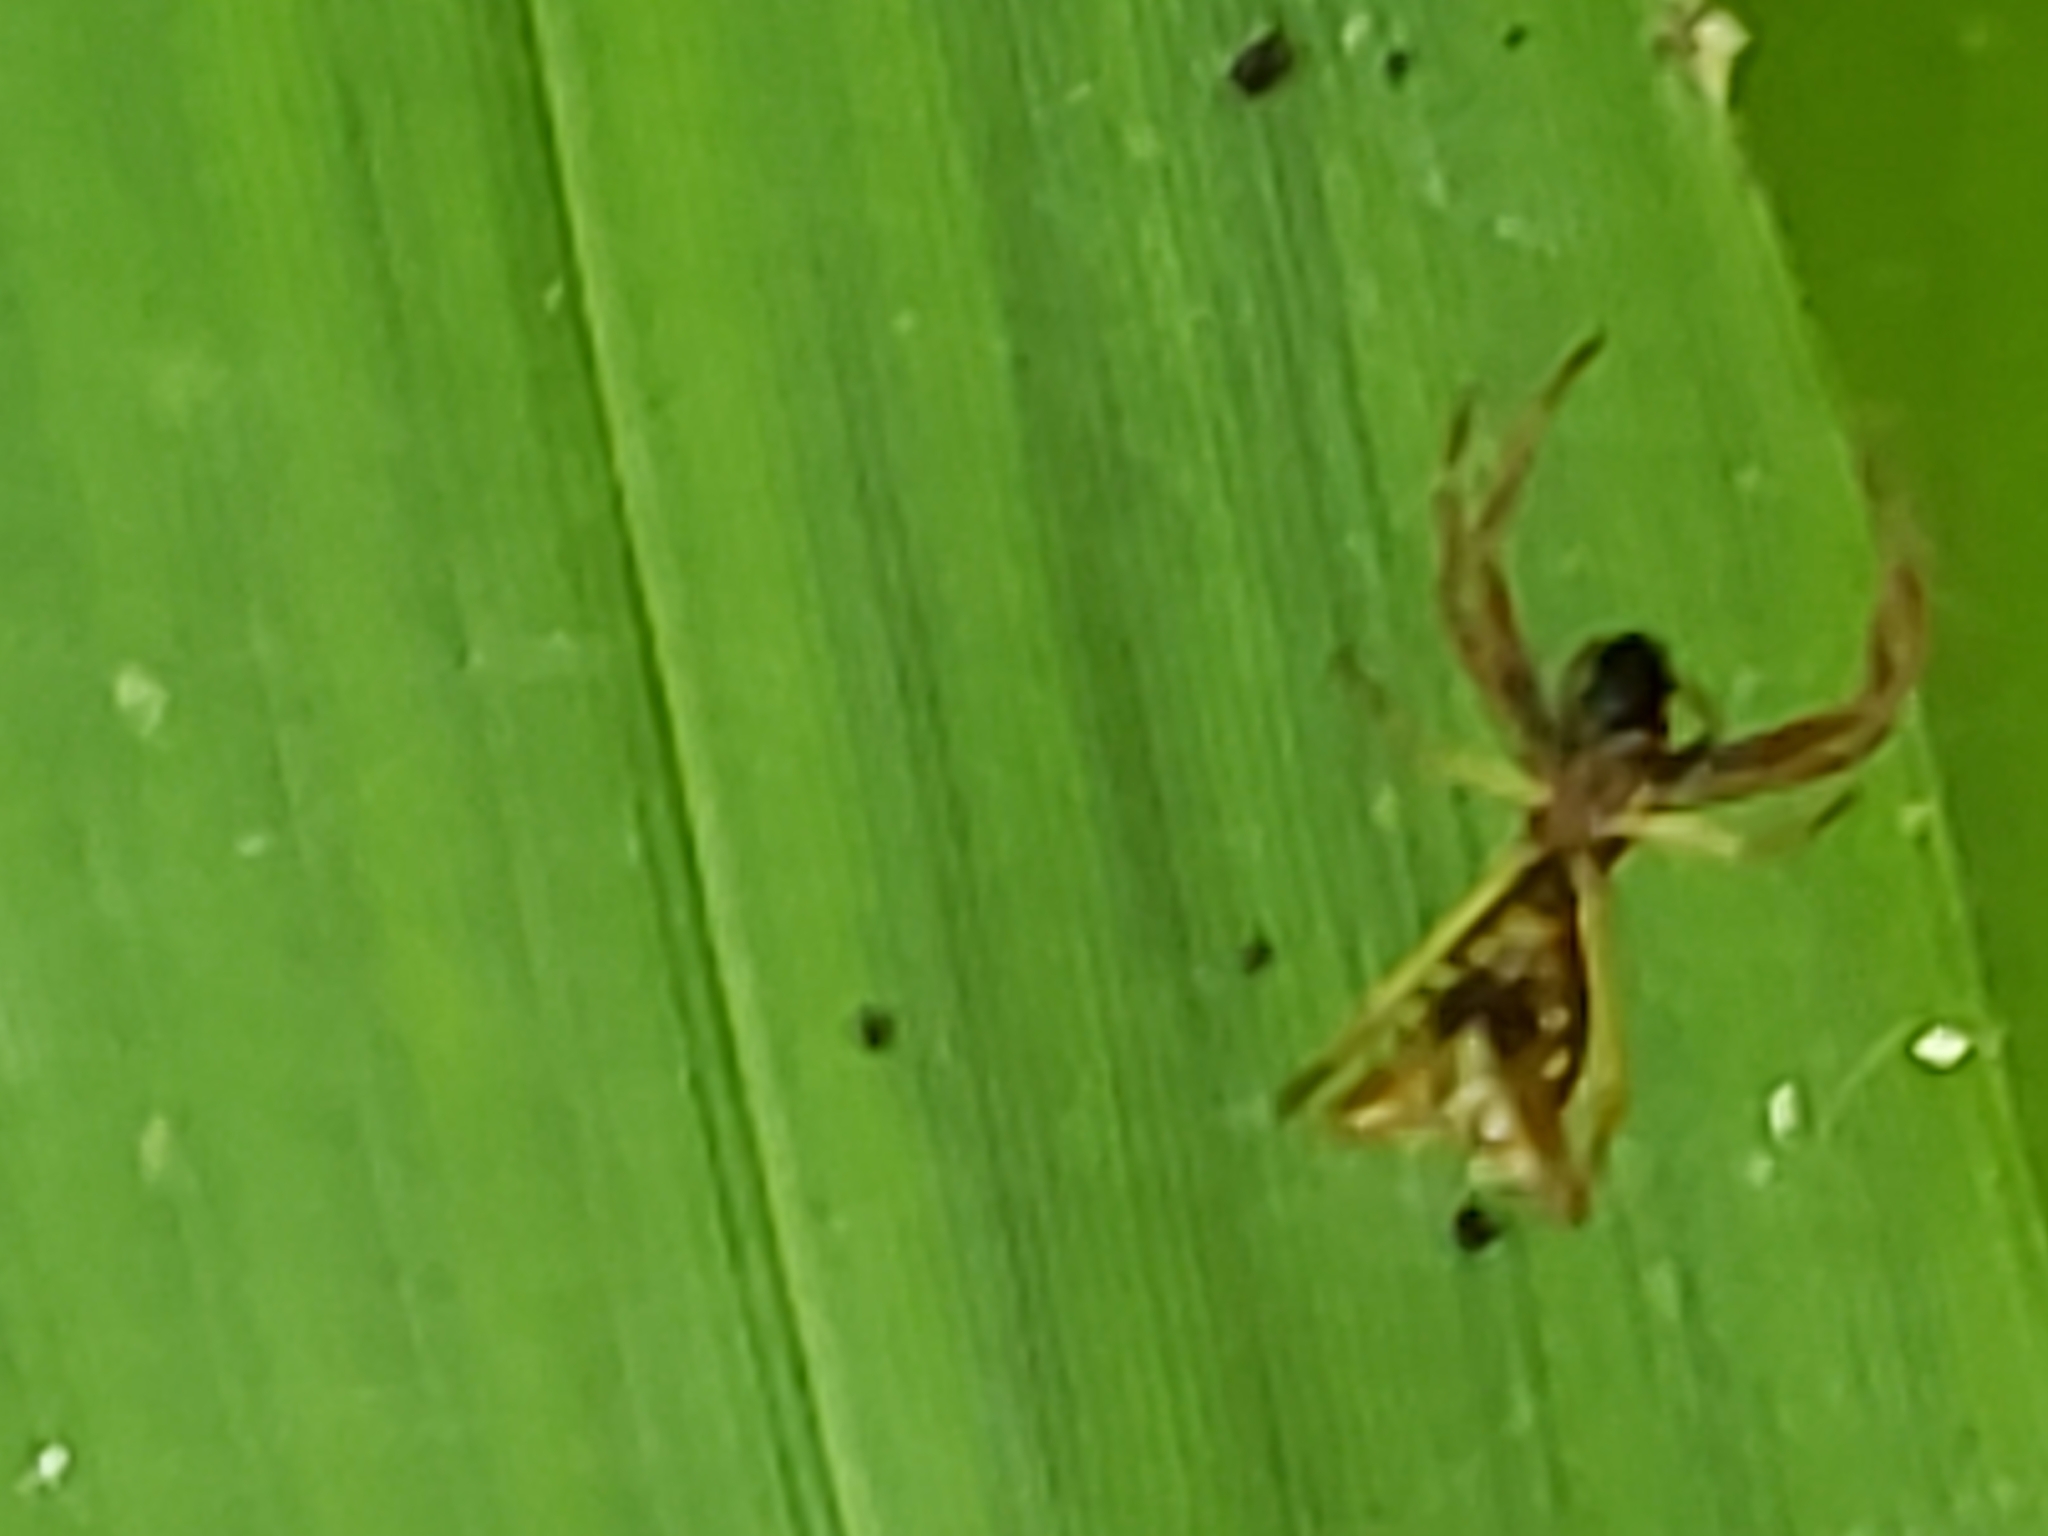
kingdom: Animalia
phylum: Arthropoda
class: Arachnida
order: Araneae
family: Araneidae
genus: Micrathena
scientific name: Micrathena sagittata
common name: Orb weavers
